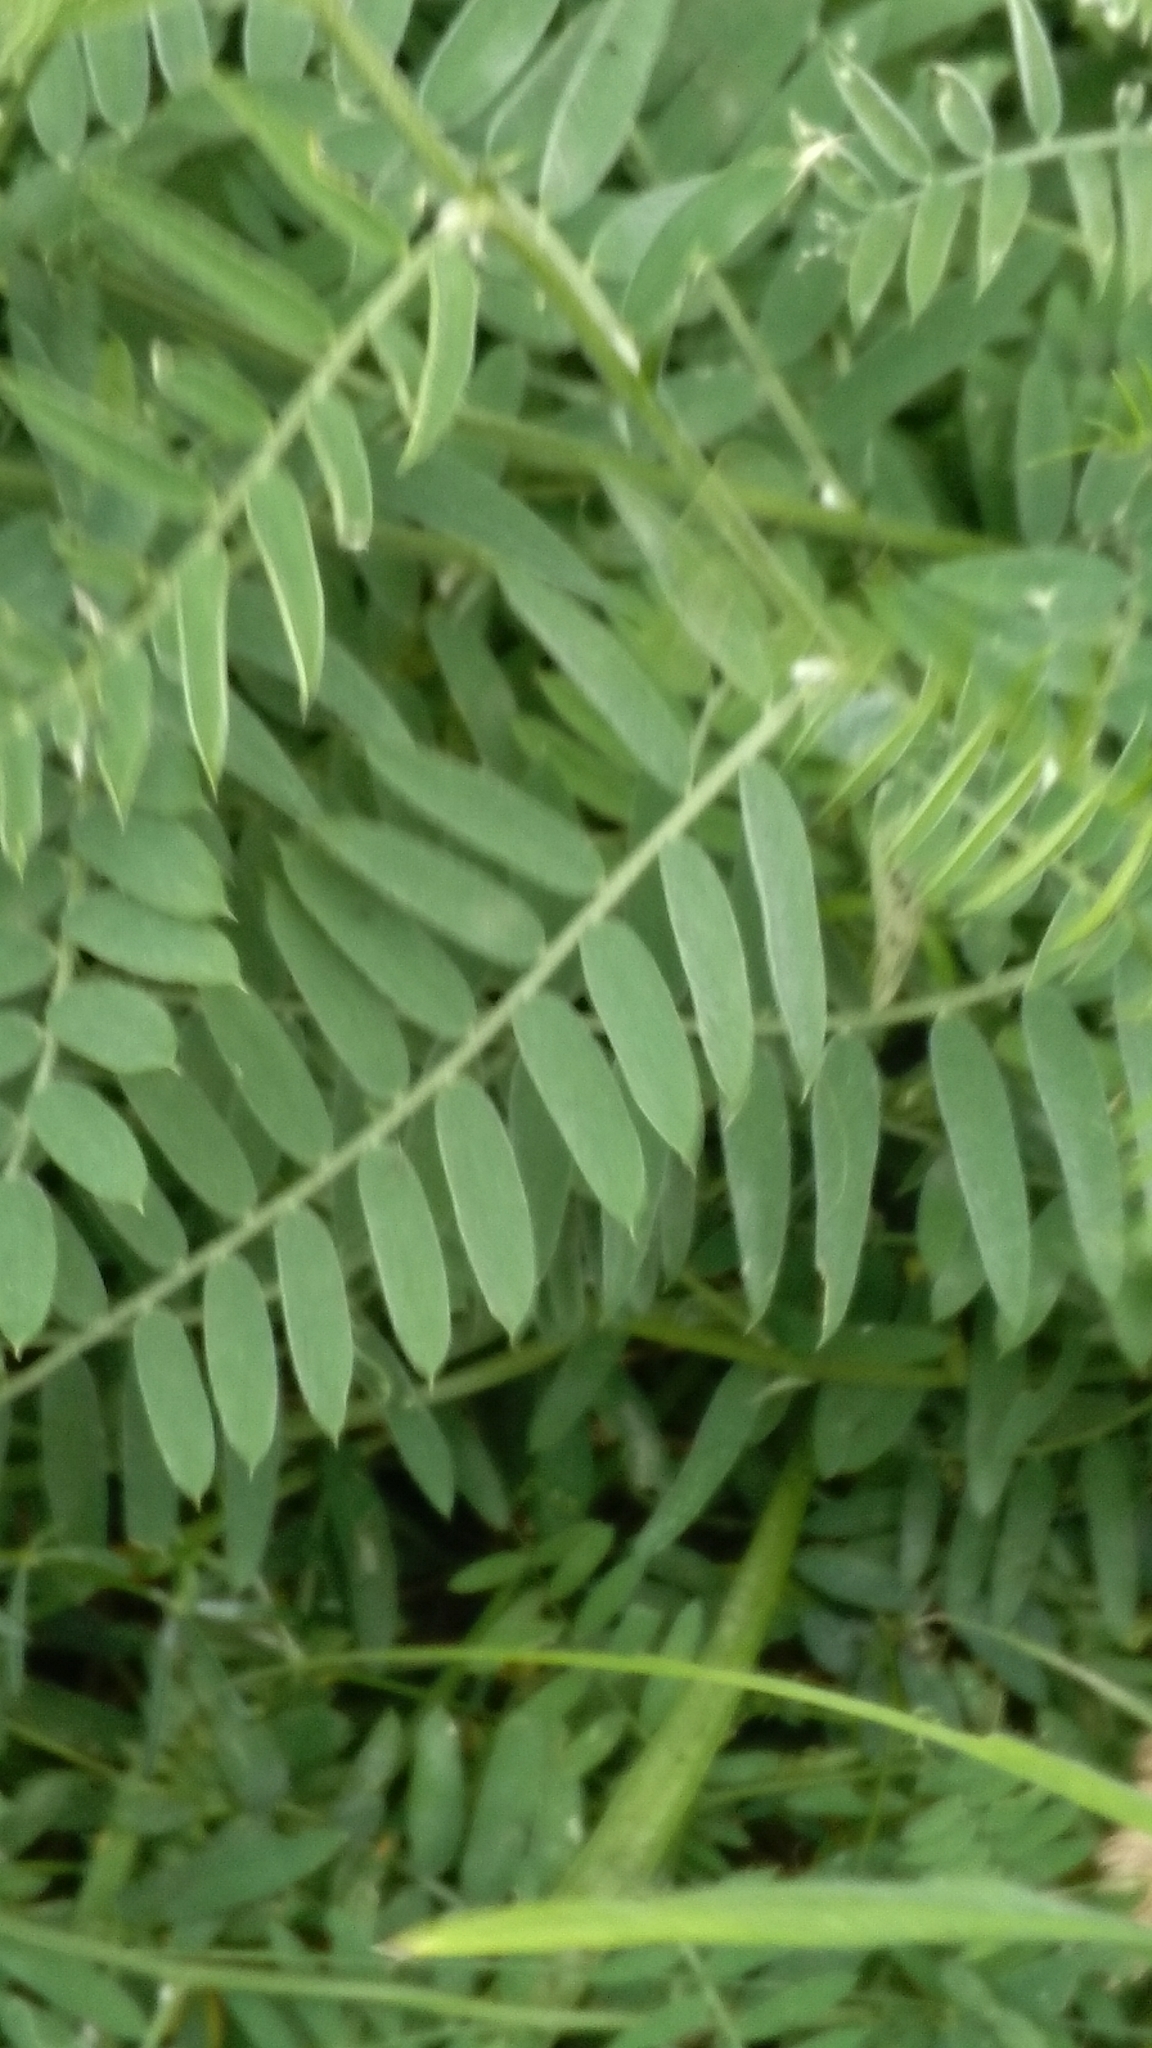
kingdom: Plantae
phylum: Tracheophyta
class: Magnoliopsida
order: Fabales
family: Fabaceae
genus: Vicia
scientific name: Vicia cracca
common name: Bird vetch
